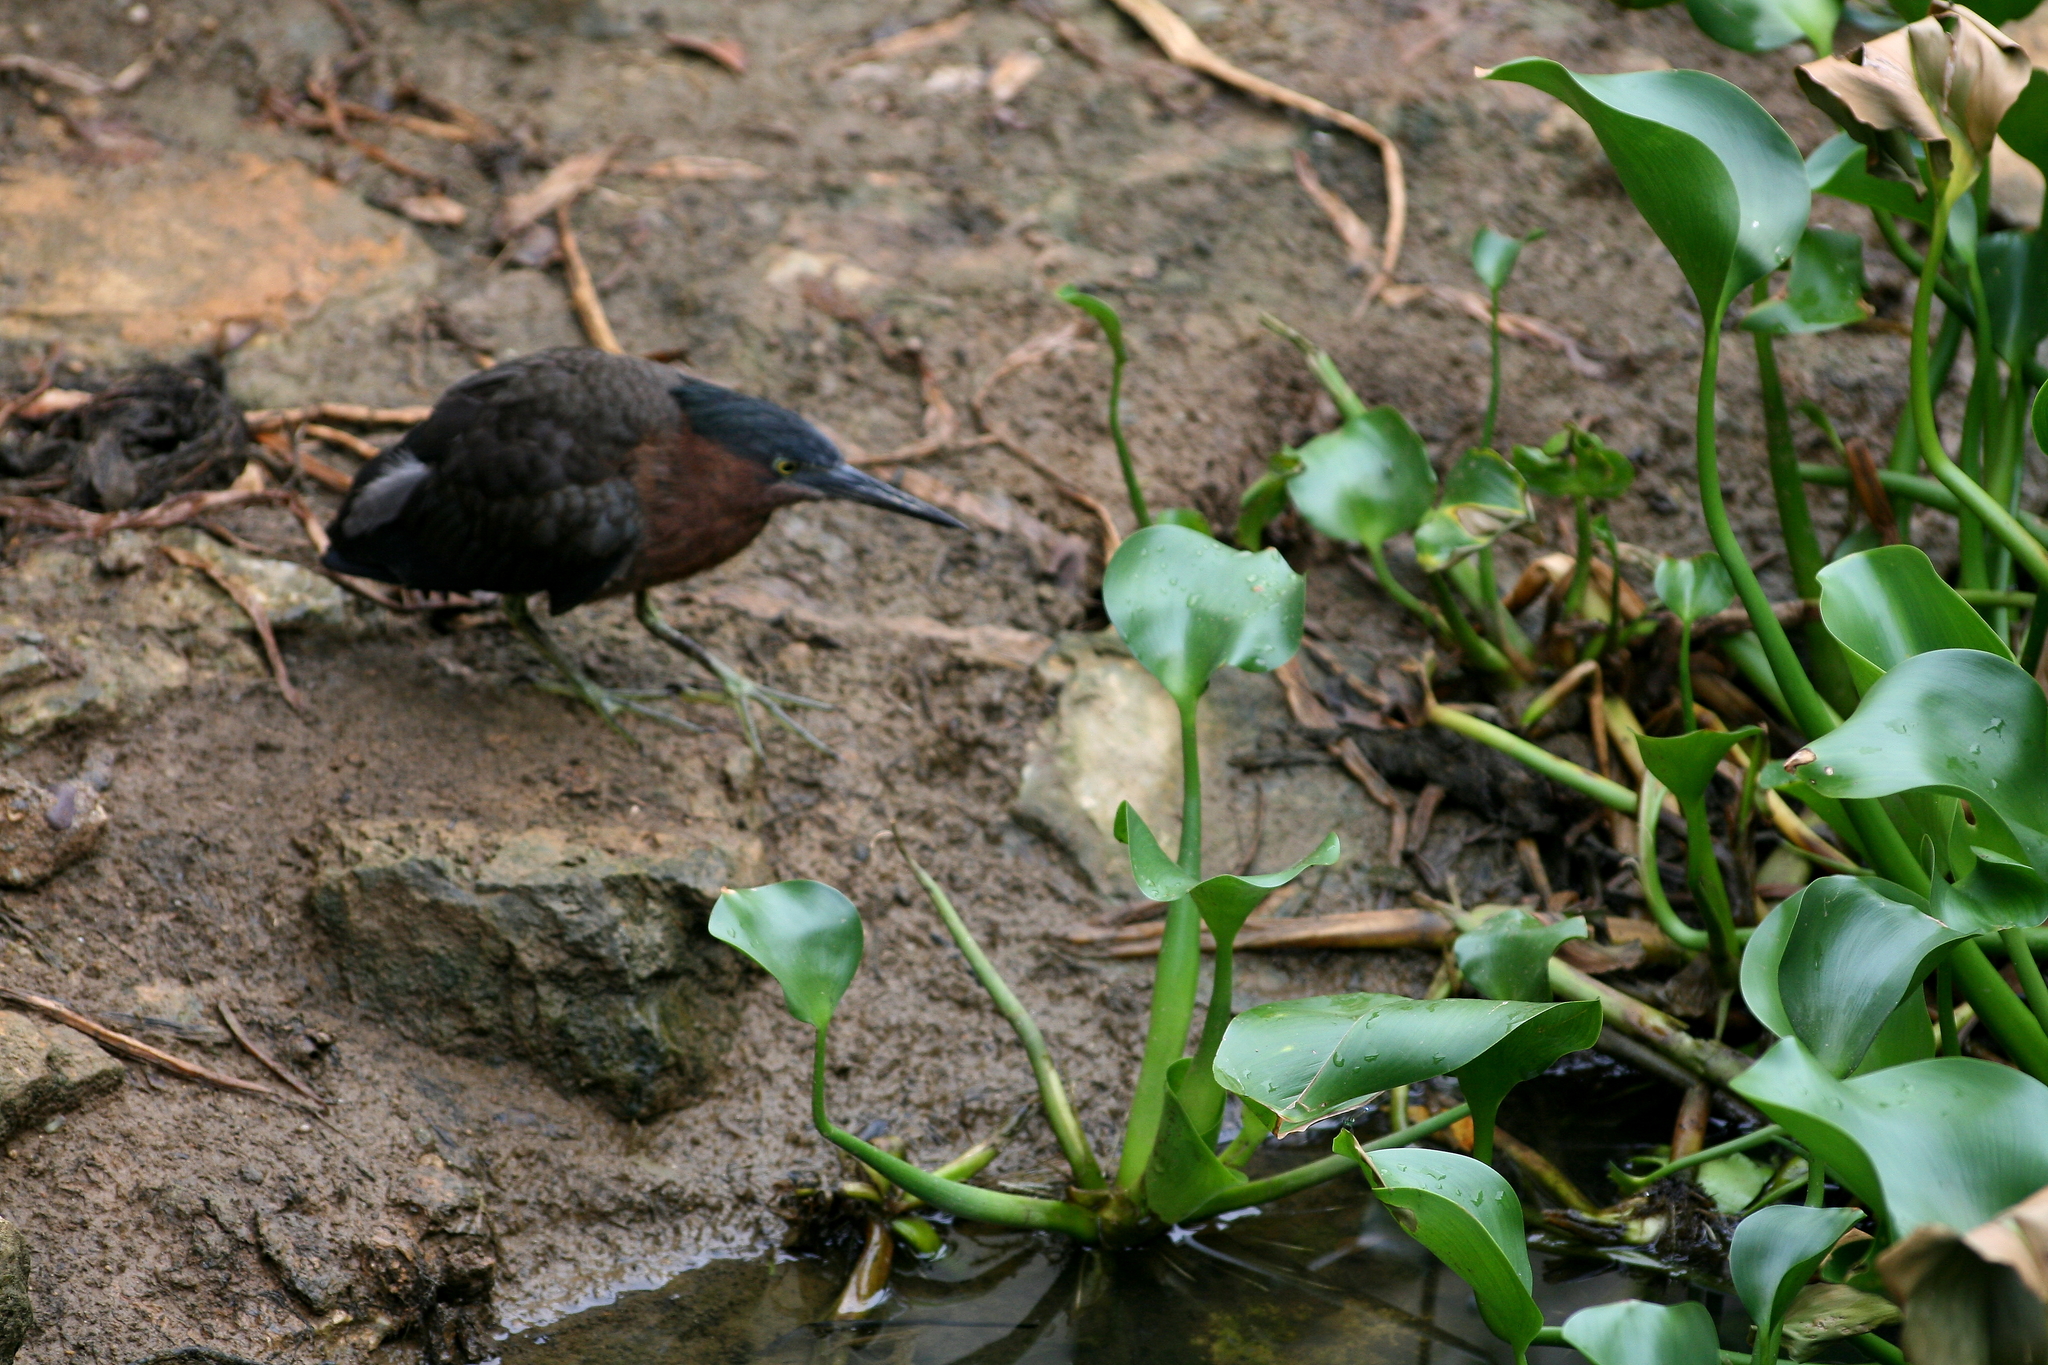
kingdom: Plantae
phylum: Tracheophyta
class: Liliopsida
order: Commelinales
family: Pontederiaceae
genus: Pontederia
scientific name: Pontederia crassipes
